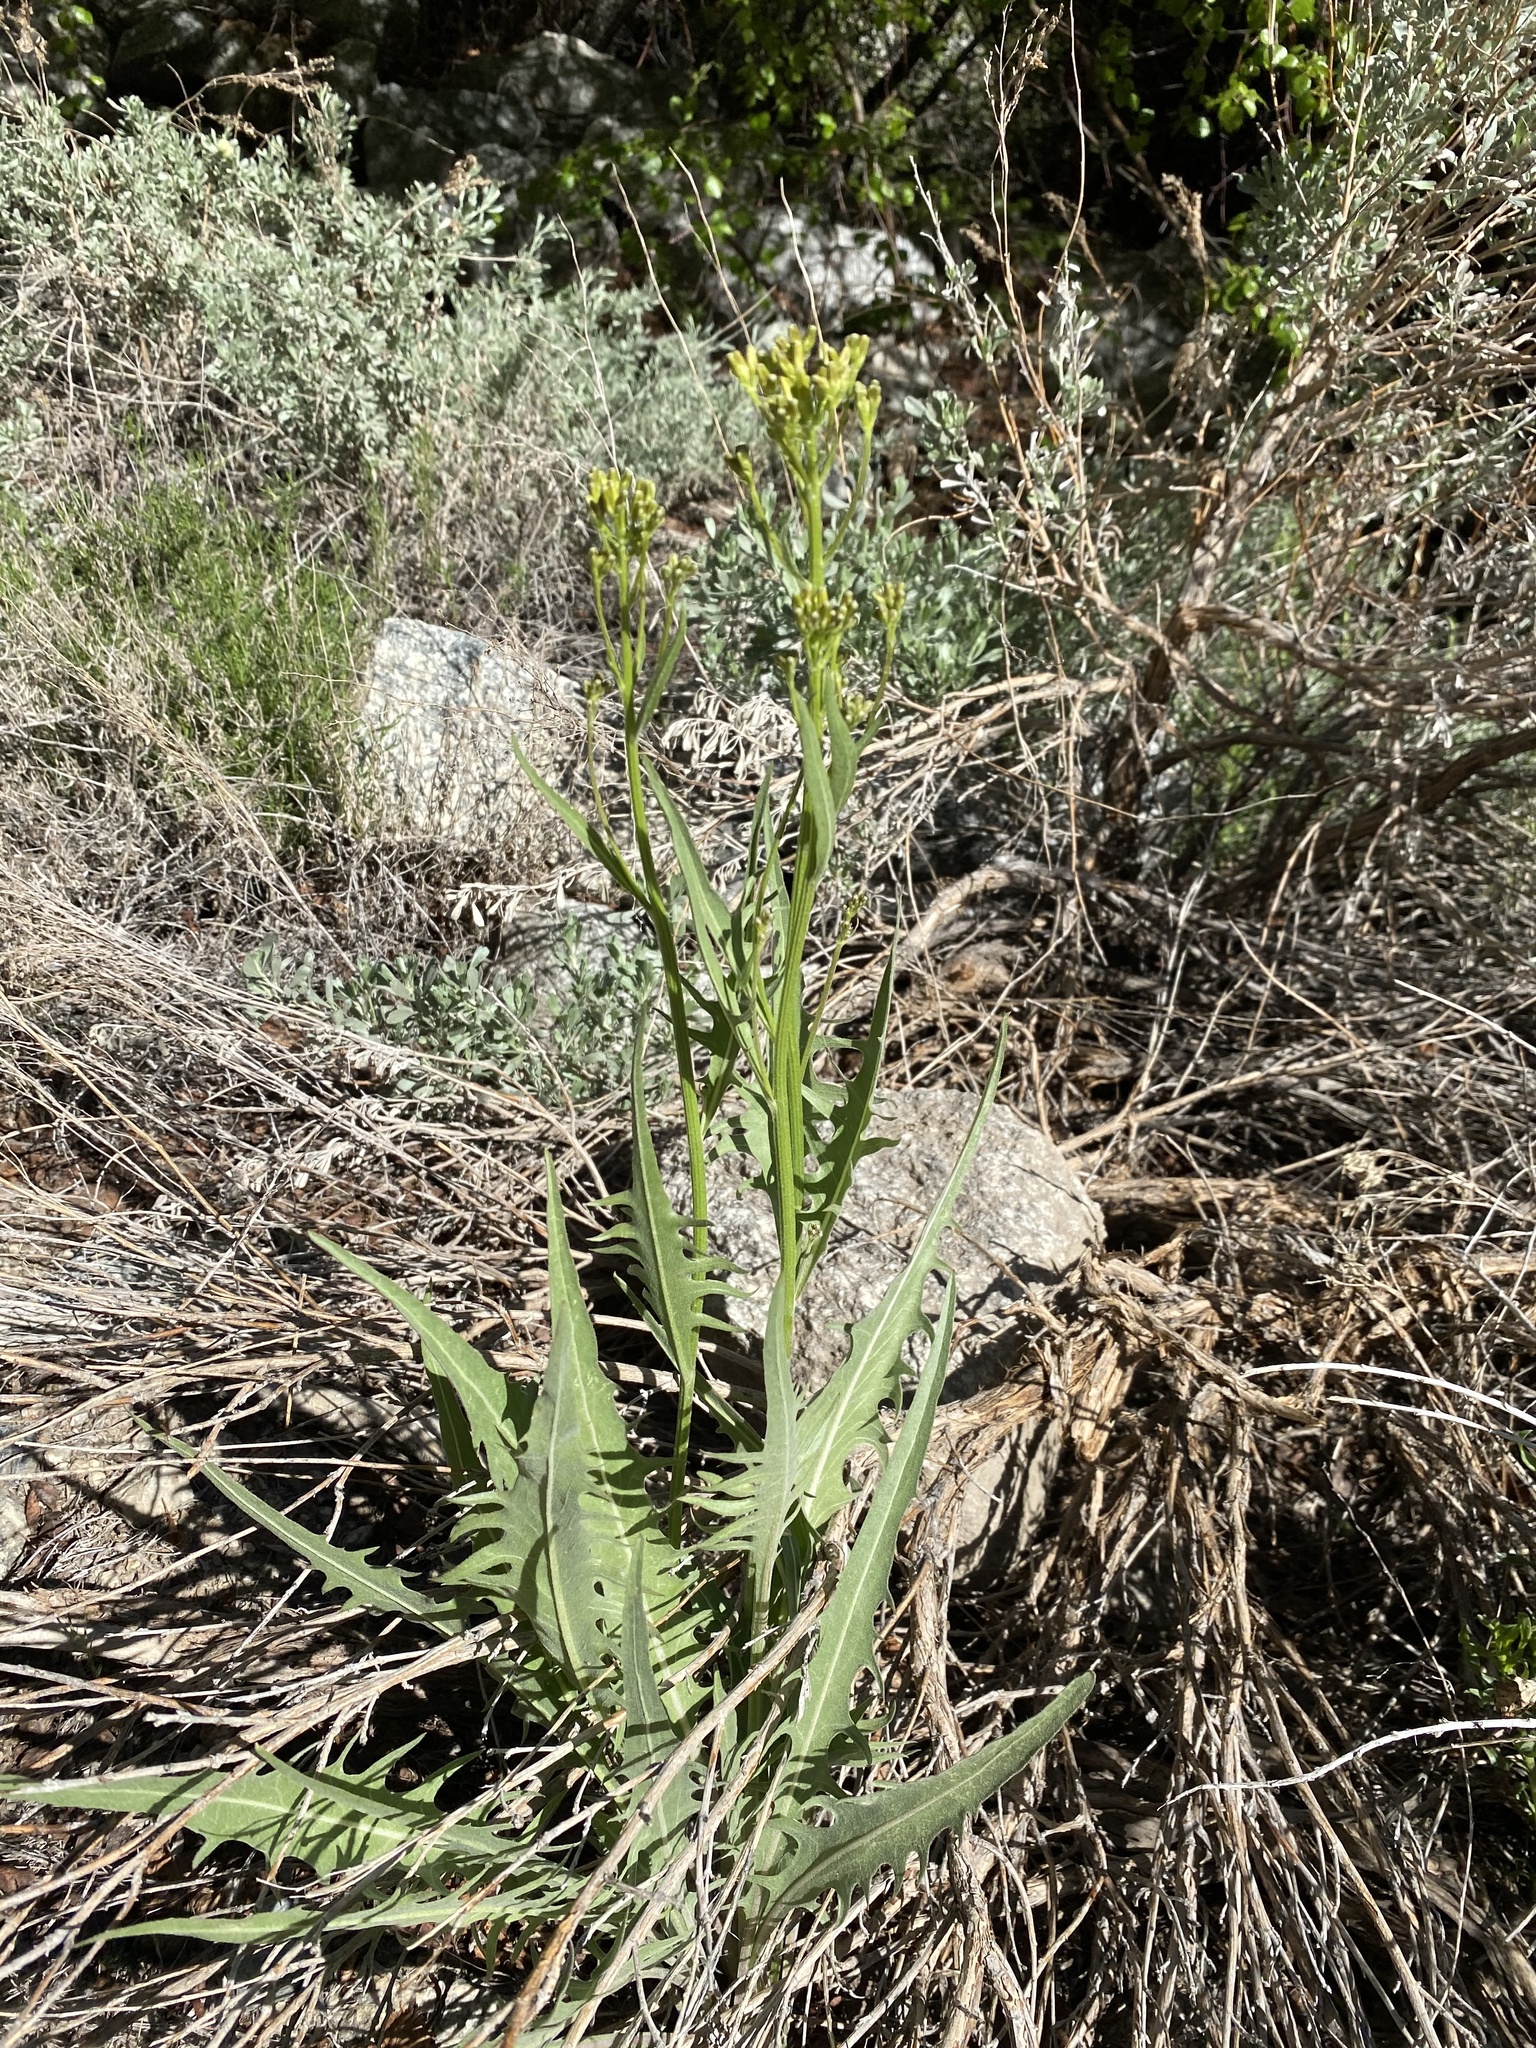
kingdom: Plantae
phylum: Tracheophyta
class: Magnoliopsida
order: Asterales
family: Asteraceae
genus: Crepis
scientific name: Crepis acuminata
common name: Longleaf hawk's-beard
